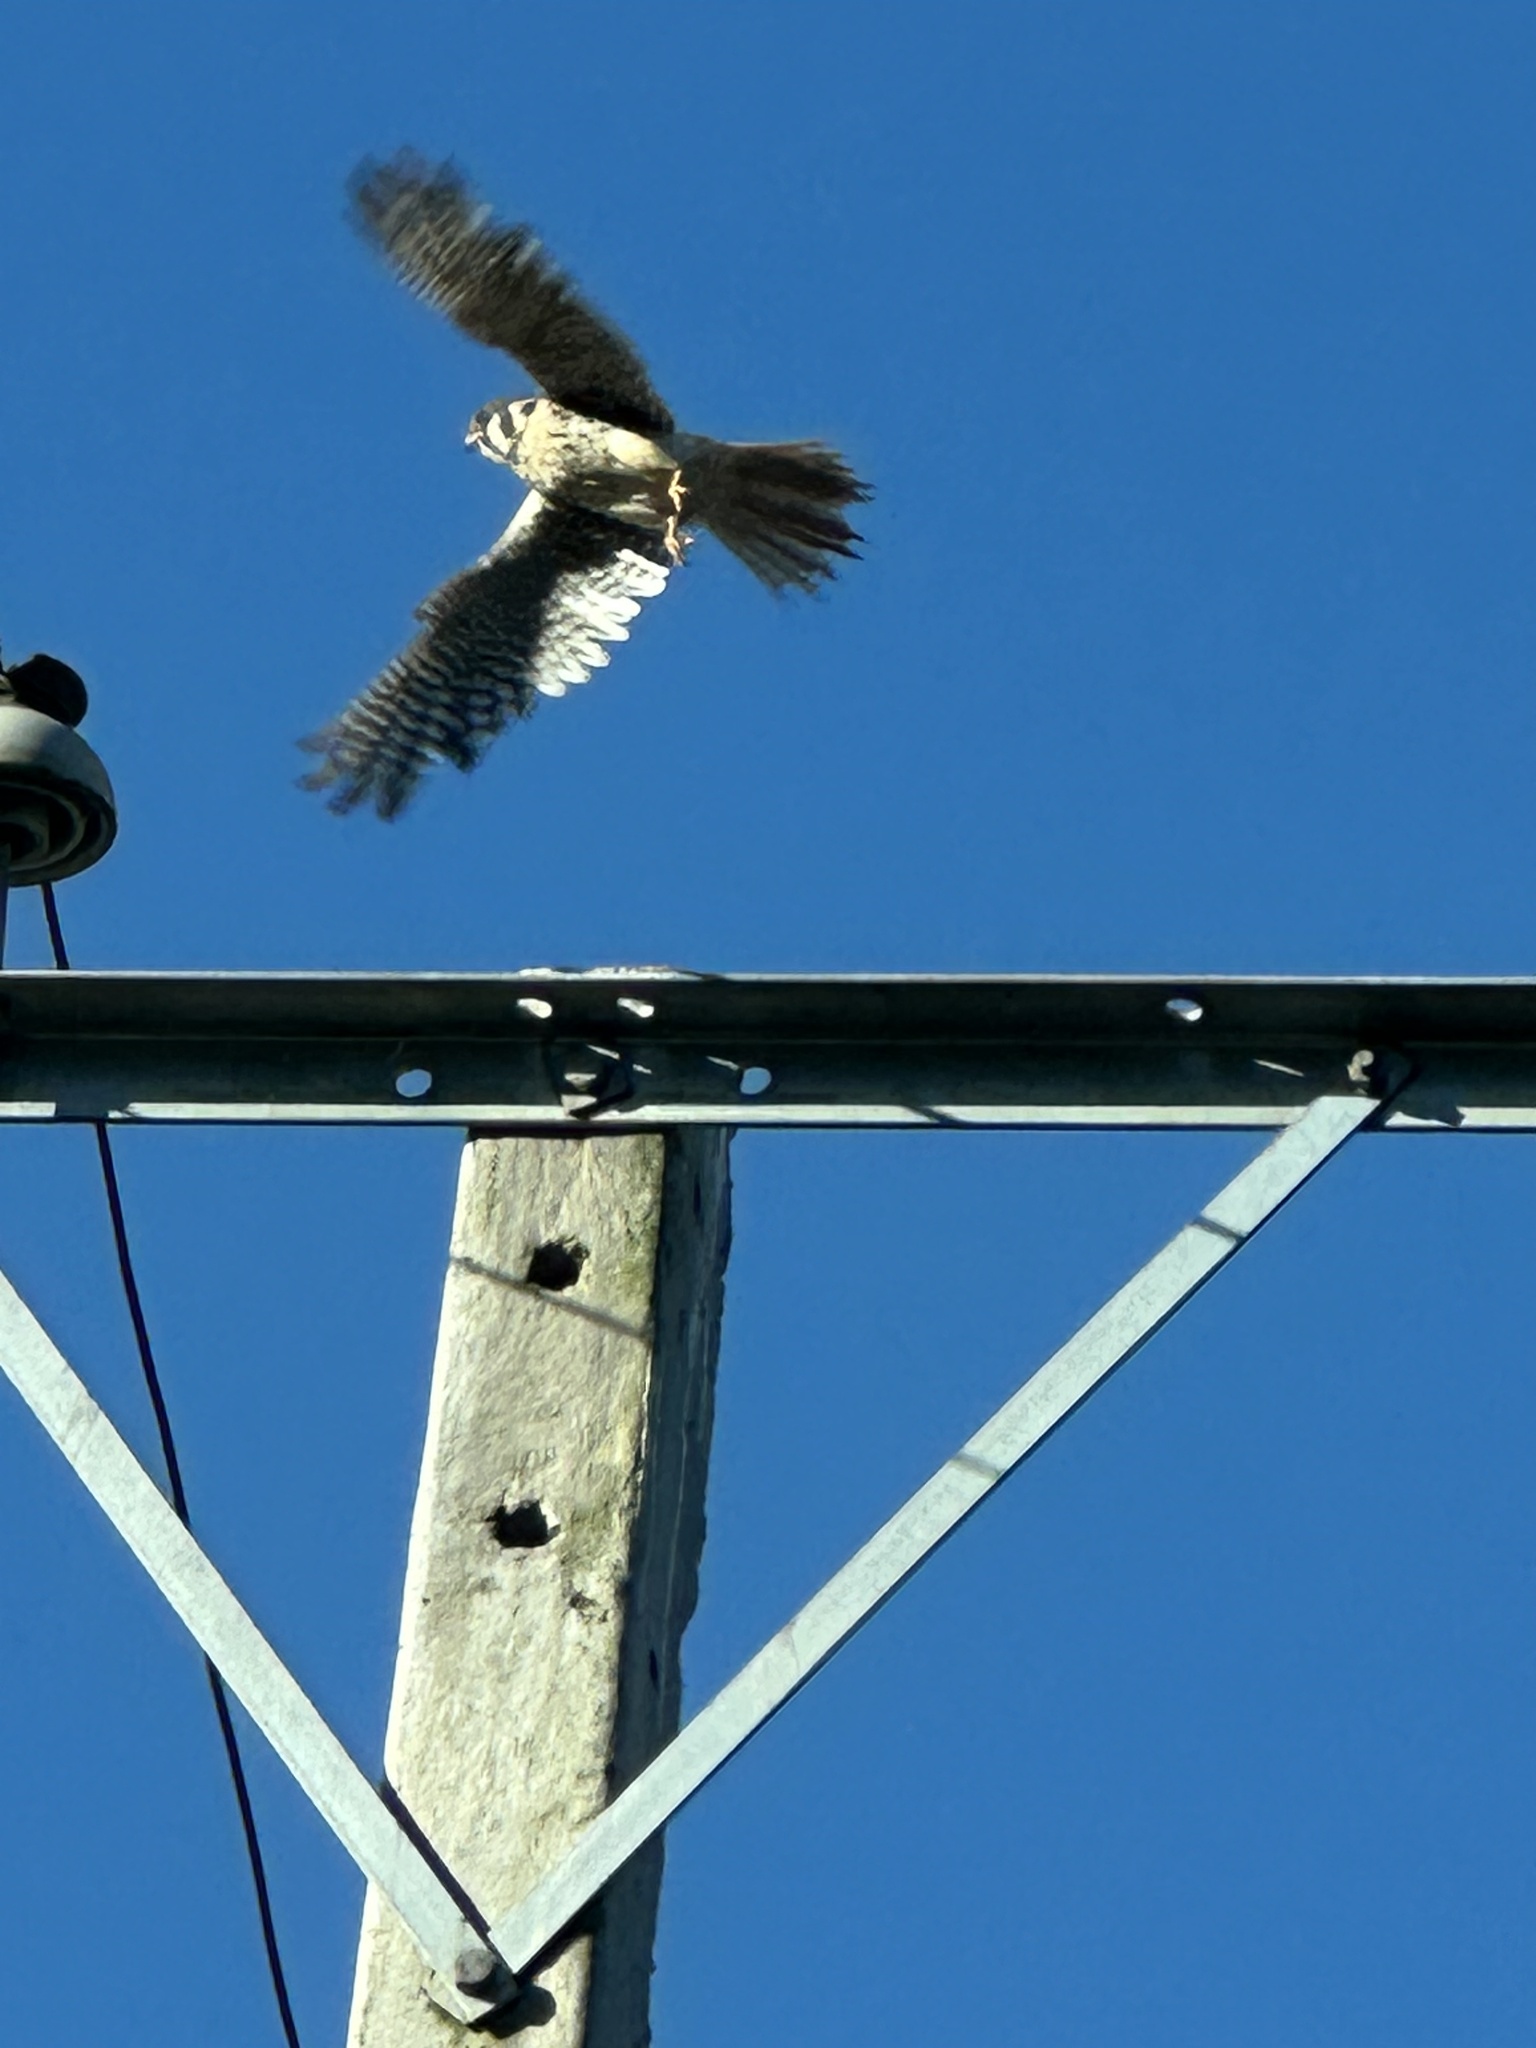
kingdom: Animalia
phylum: Chordata
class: Aves
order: Falconiformes
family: Falconidae
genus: Falco
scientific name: Falco sparverius
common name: American kestrel
